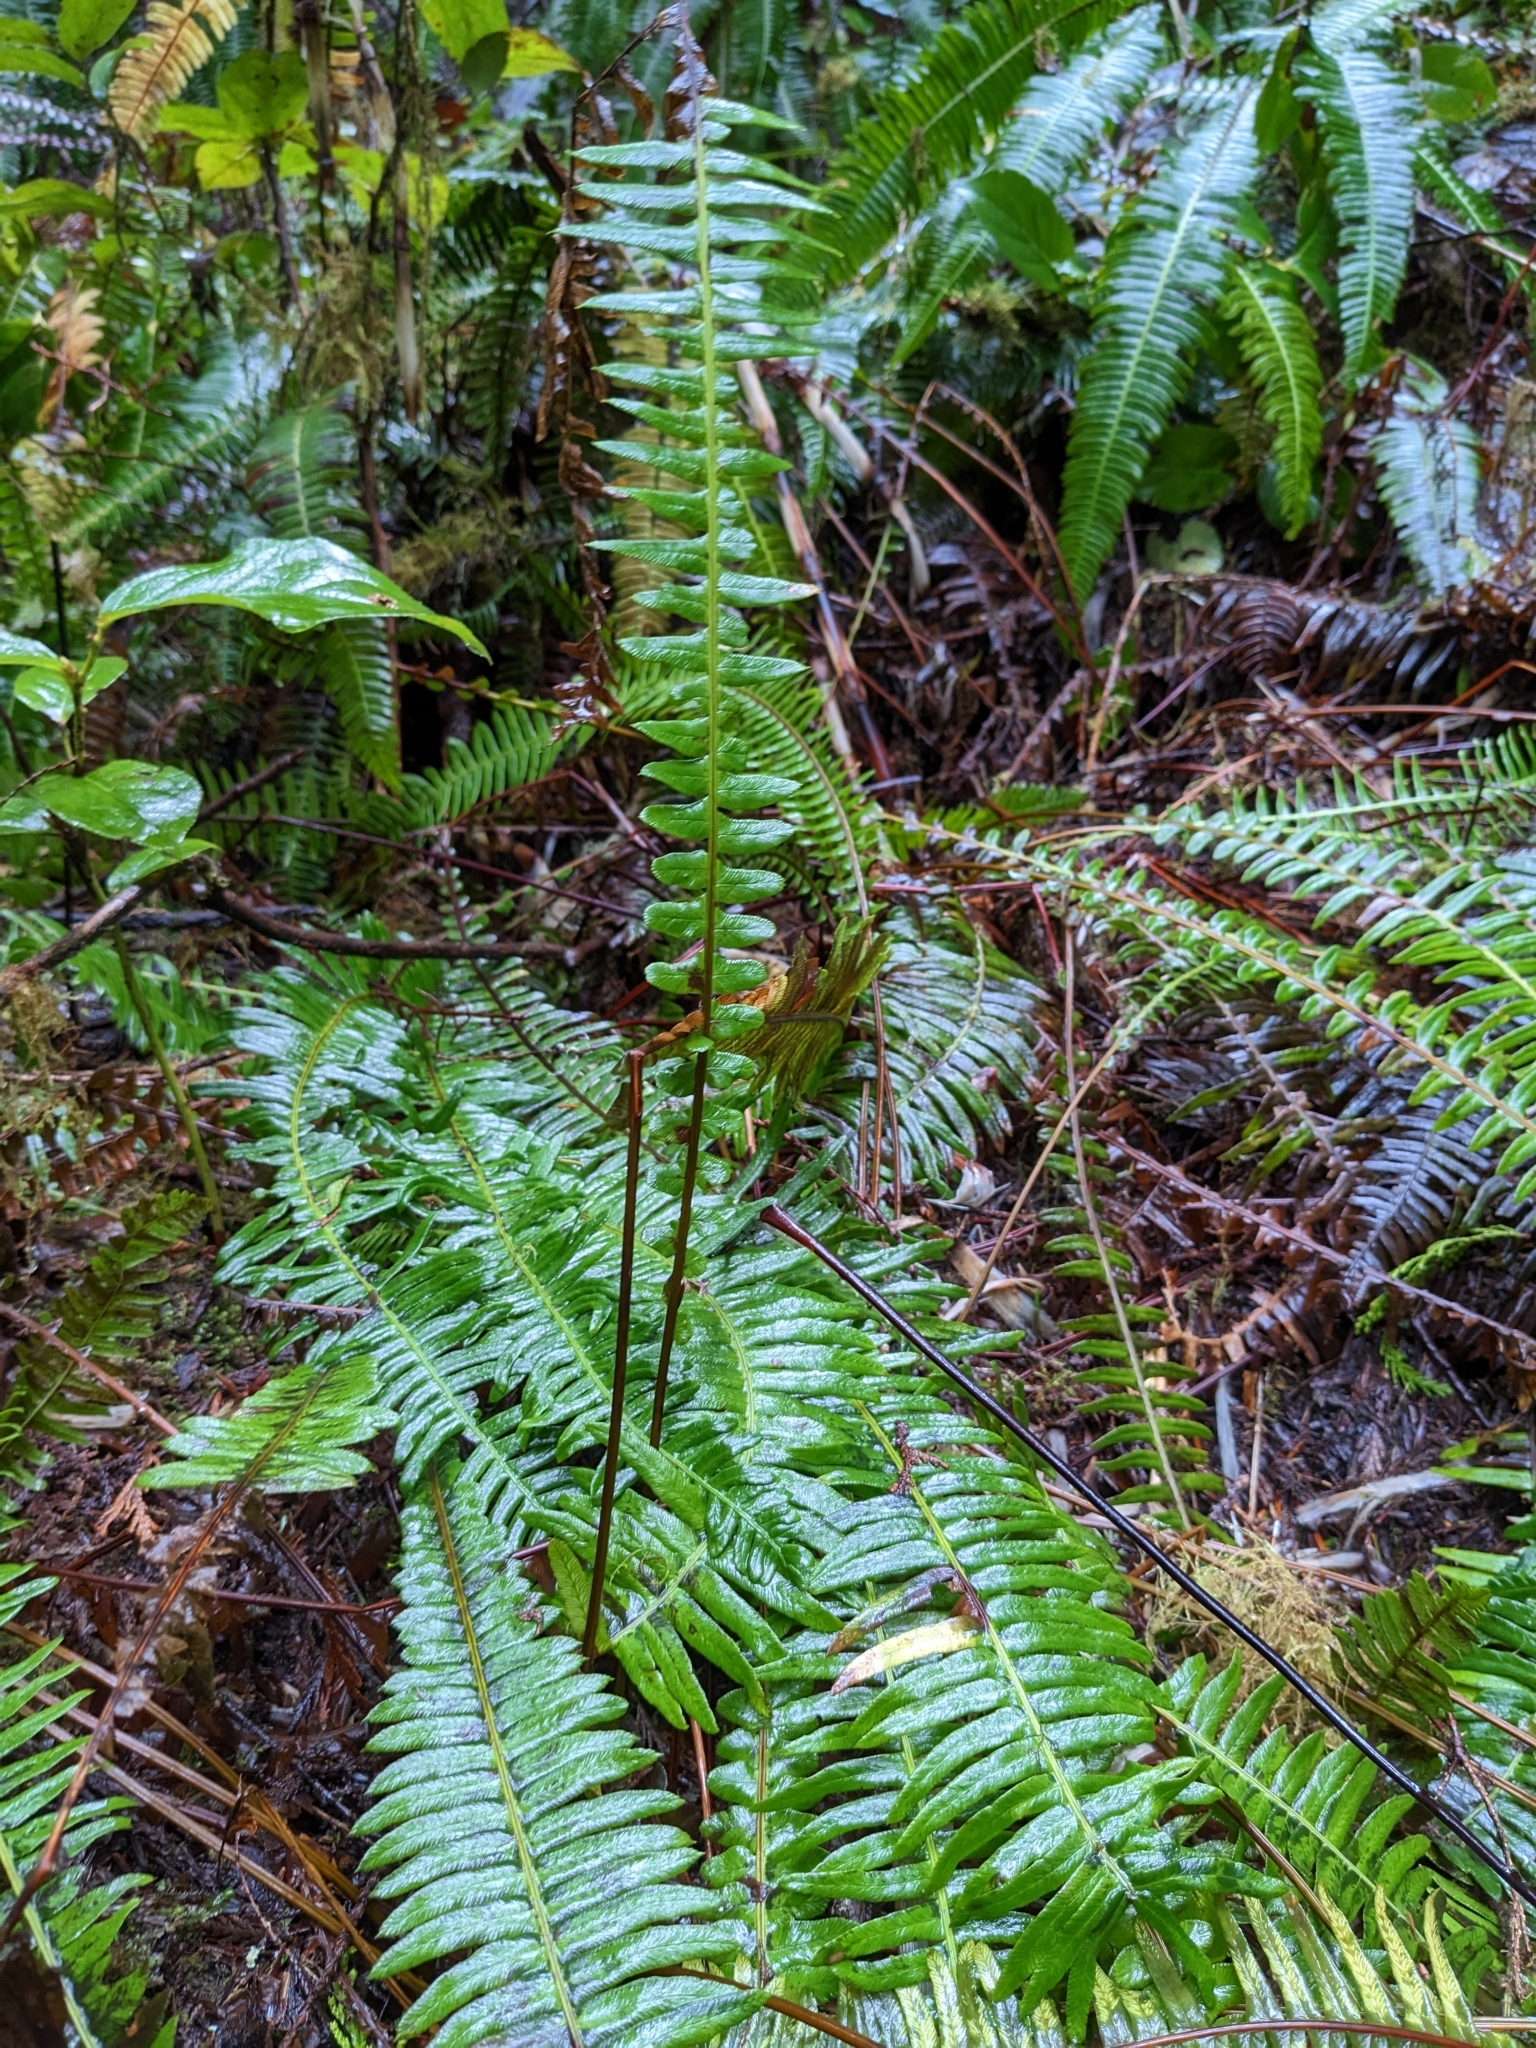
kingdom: Plantae
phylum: Tracheophyta
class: Polypodiopsida
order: Polypodiales
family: Blechnaceae
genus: Struthiopteris
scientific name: Struthiopteris spicant
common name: Deer fern
